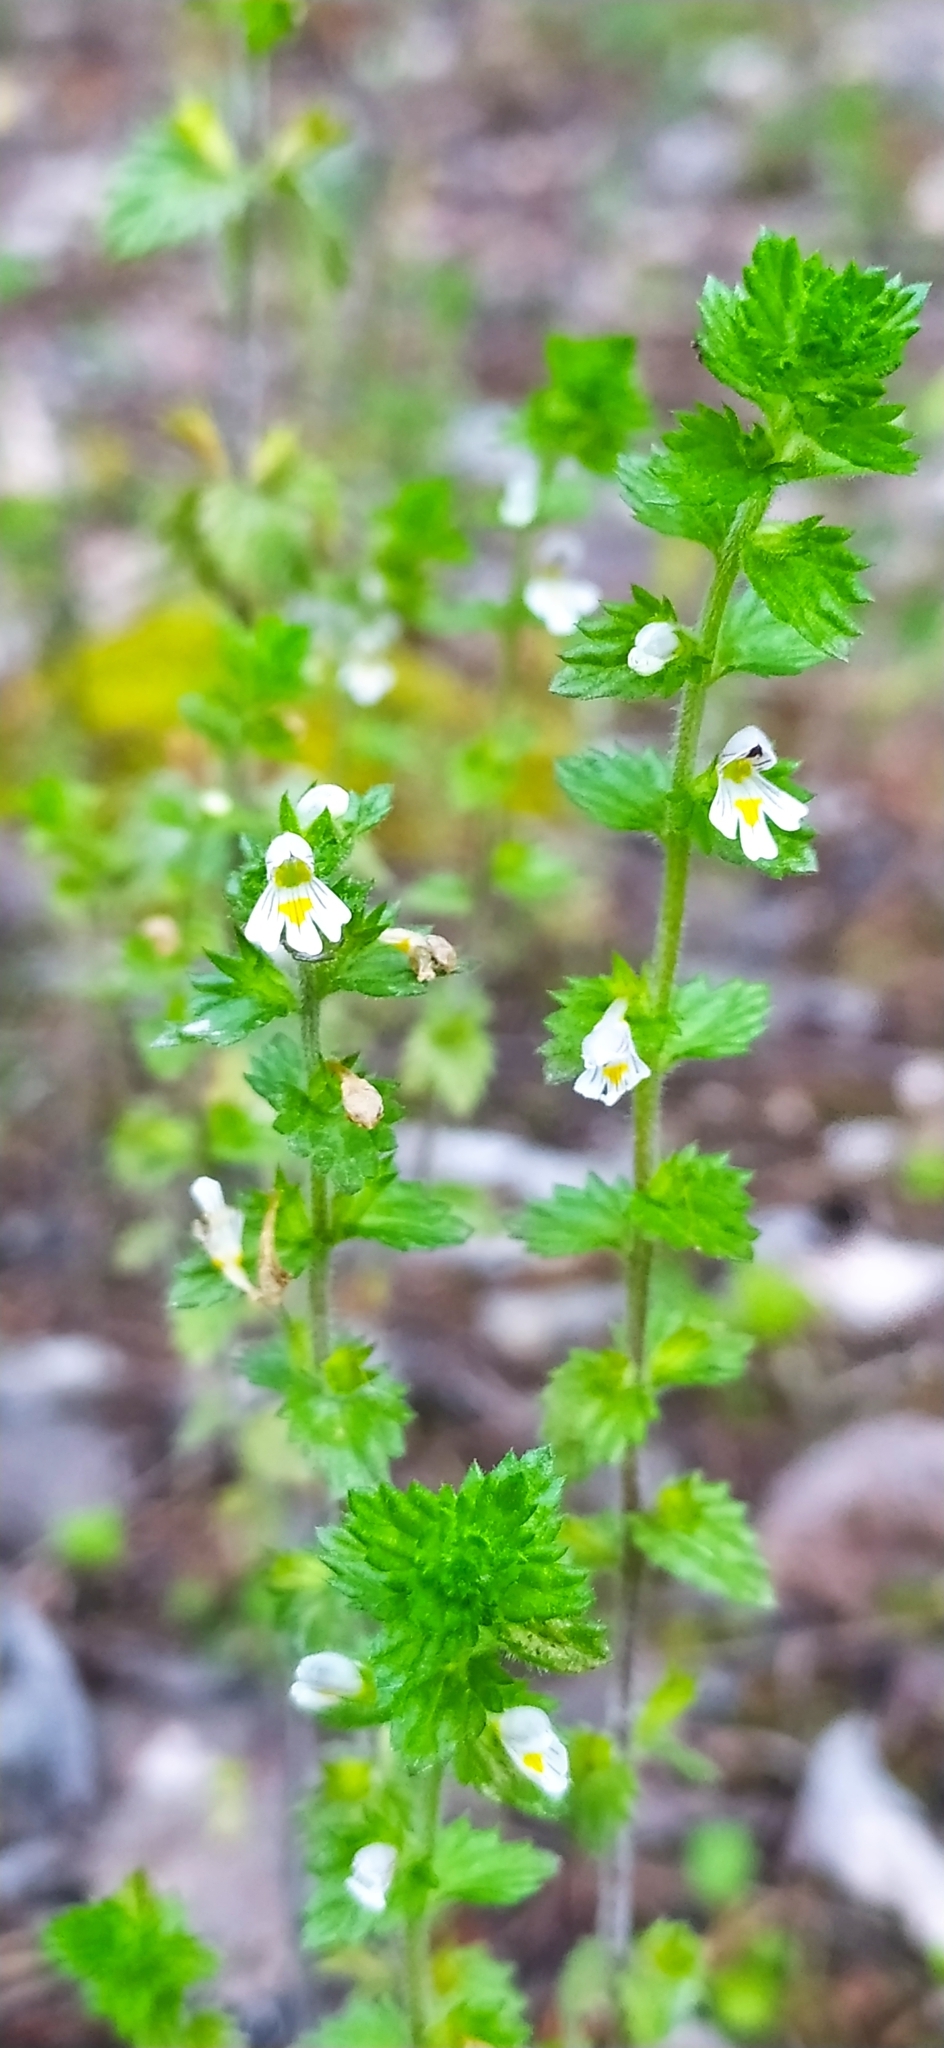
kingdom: Plantae
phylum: Tracheophyta
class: Magnoliopsida
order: Lamiales
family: Orobanchaceae
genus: Euphrasia
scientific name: Euphrasia stricta
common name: Drug eyebright
